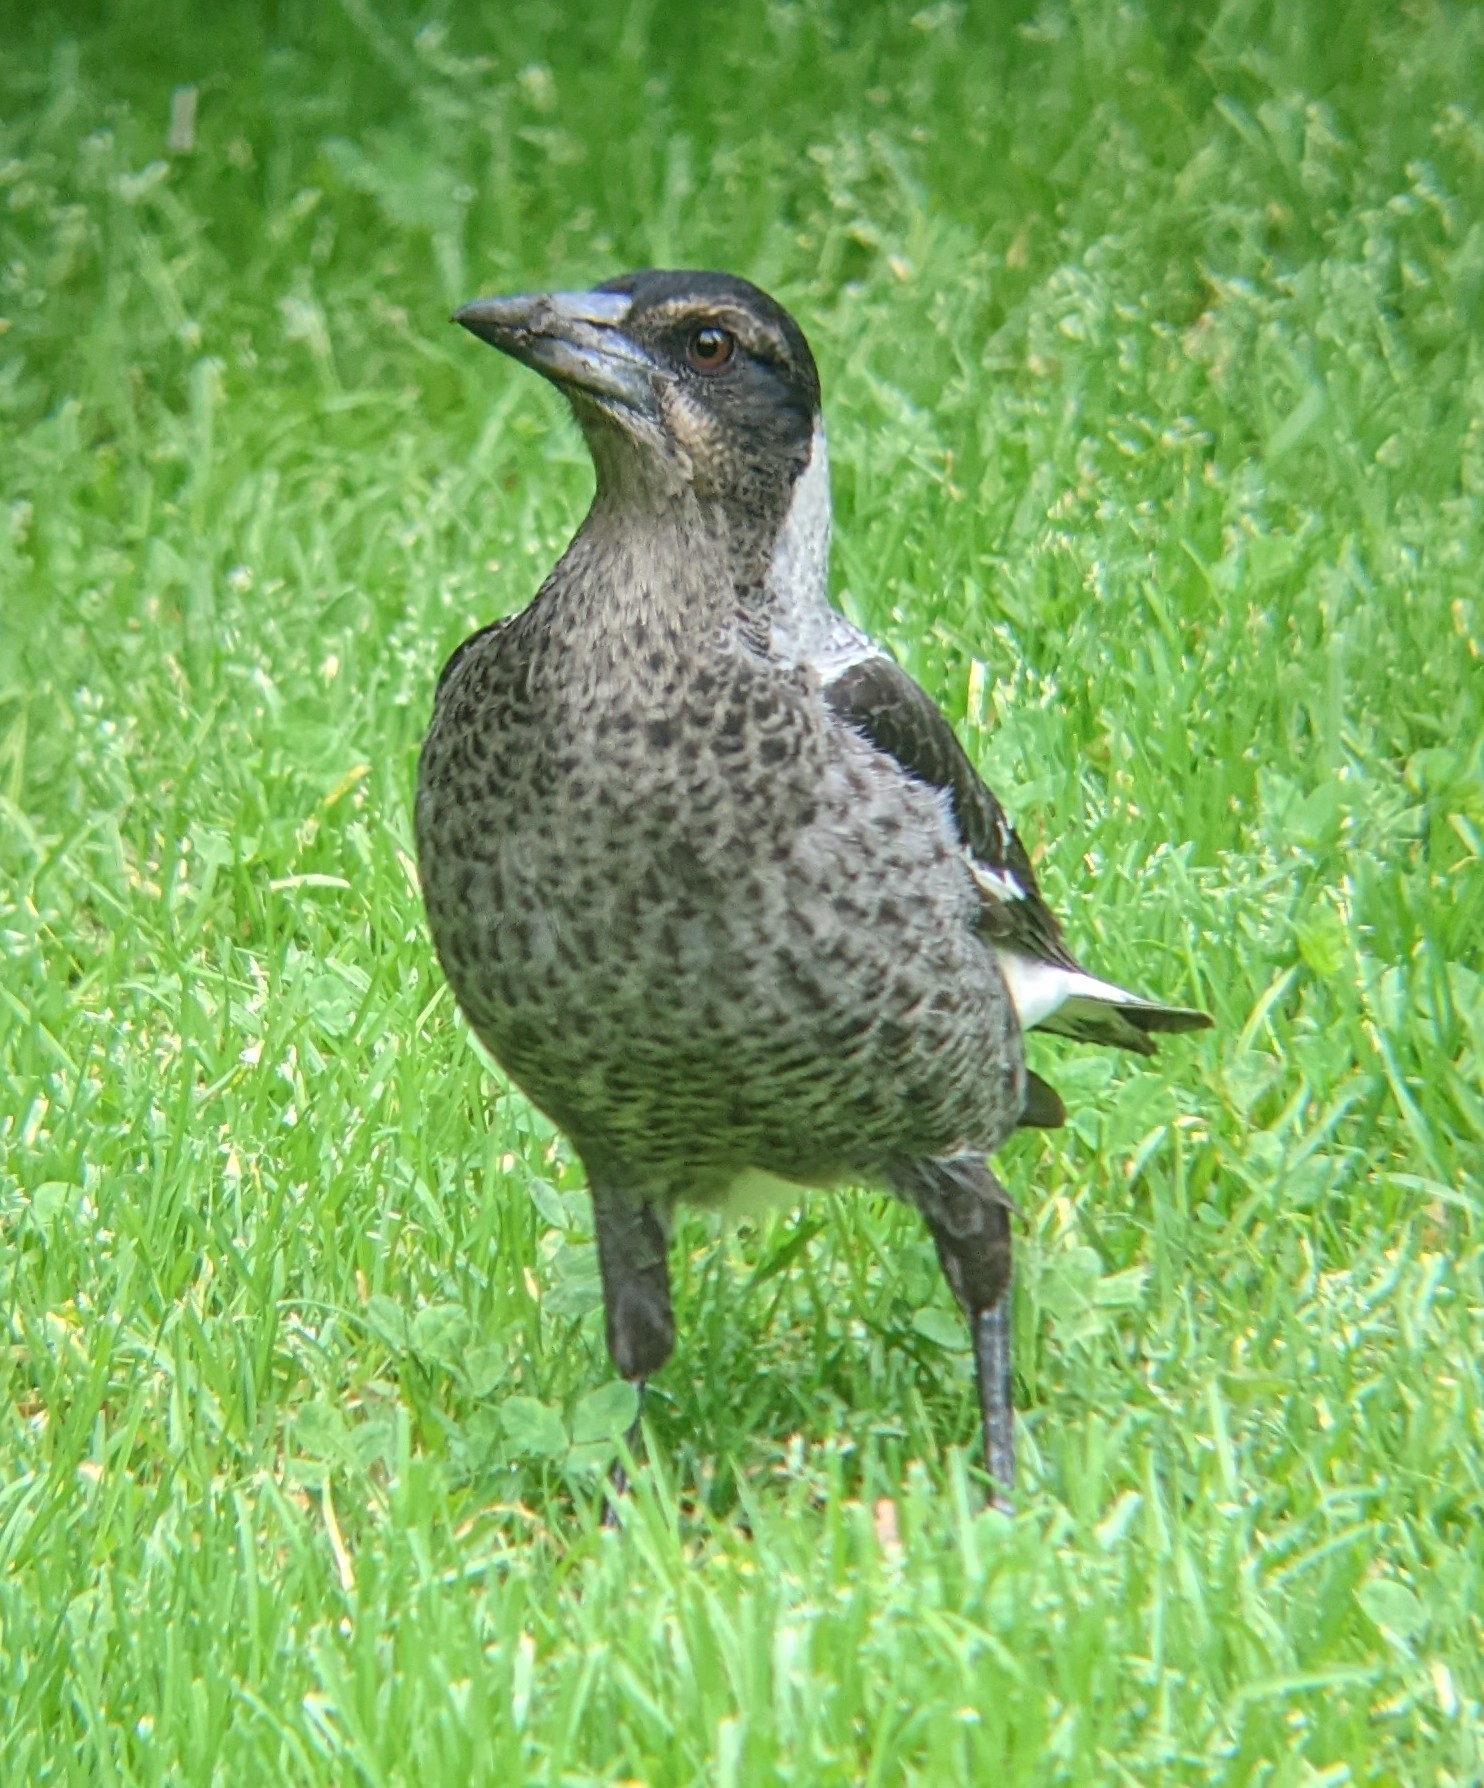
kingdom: Animalia
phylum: Chordata
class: Aves
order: Passeriformes
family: Cracticidae
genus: Gymnorhina
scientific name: Gymnorhina tibicen
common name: Australian magpie
